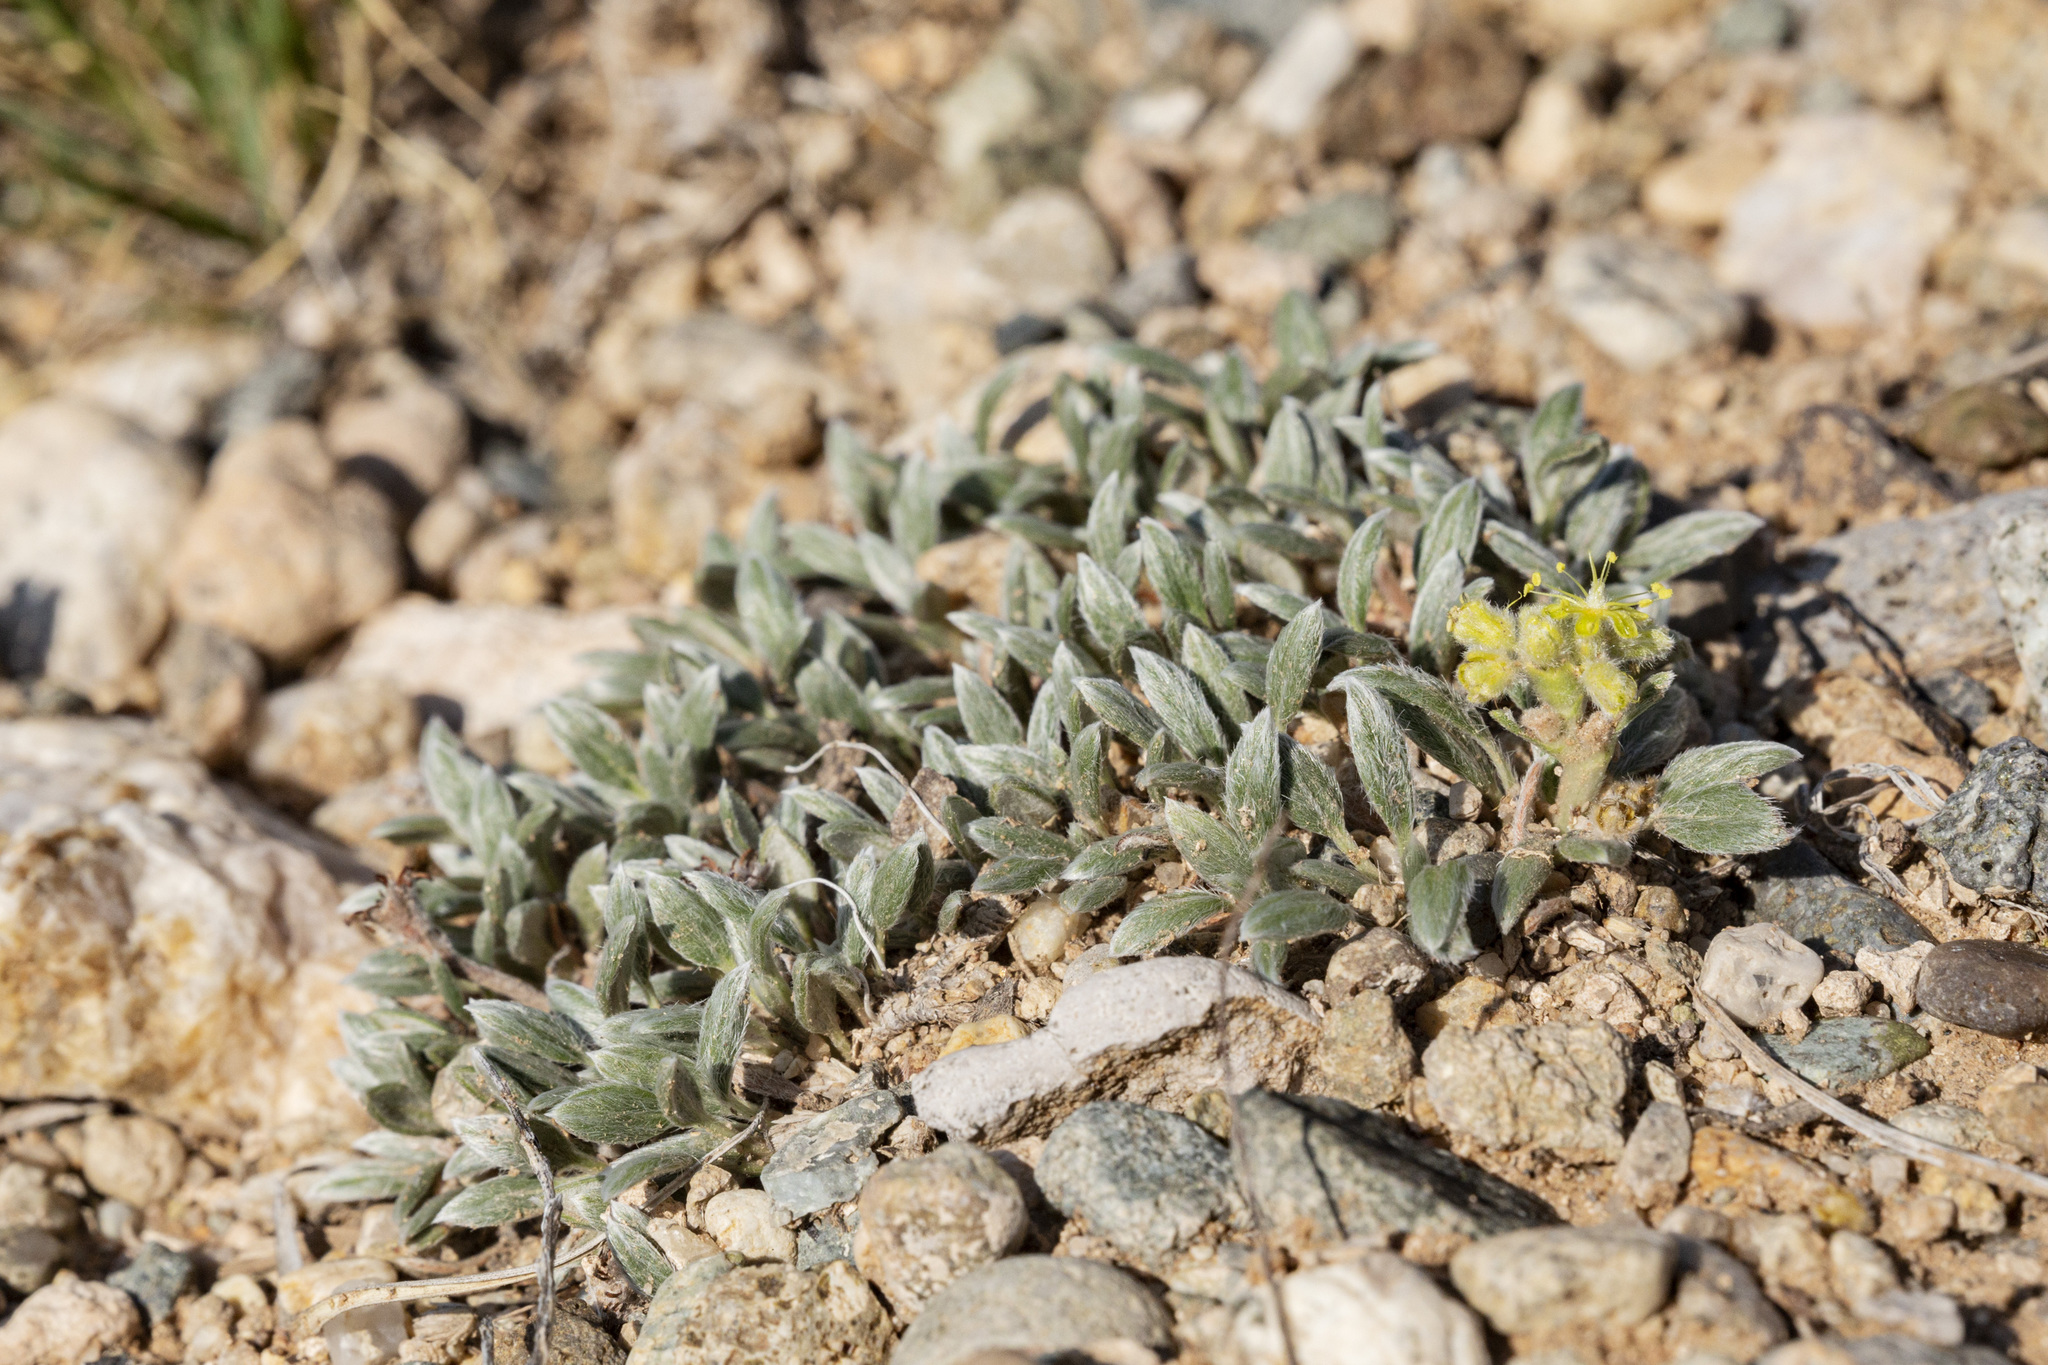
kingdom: Plantae
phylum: Tracheophyta
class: Magnoliopsida
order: Caryophyllales
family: Polygonaceae
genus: Eriogonum
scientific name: Eriogonum lachnogynum
